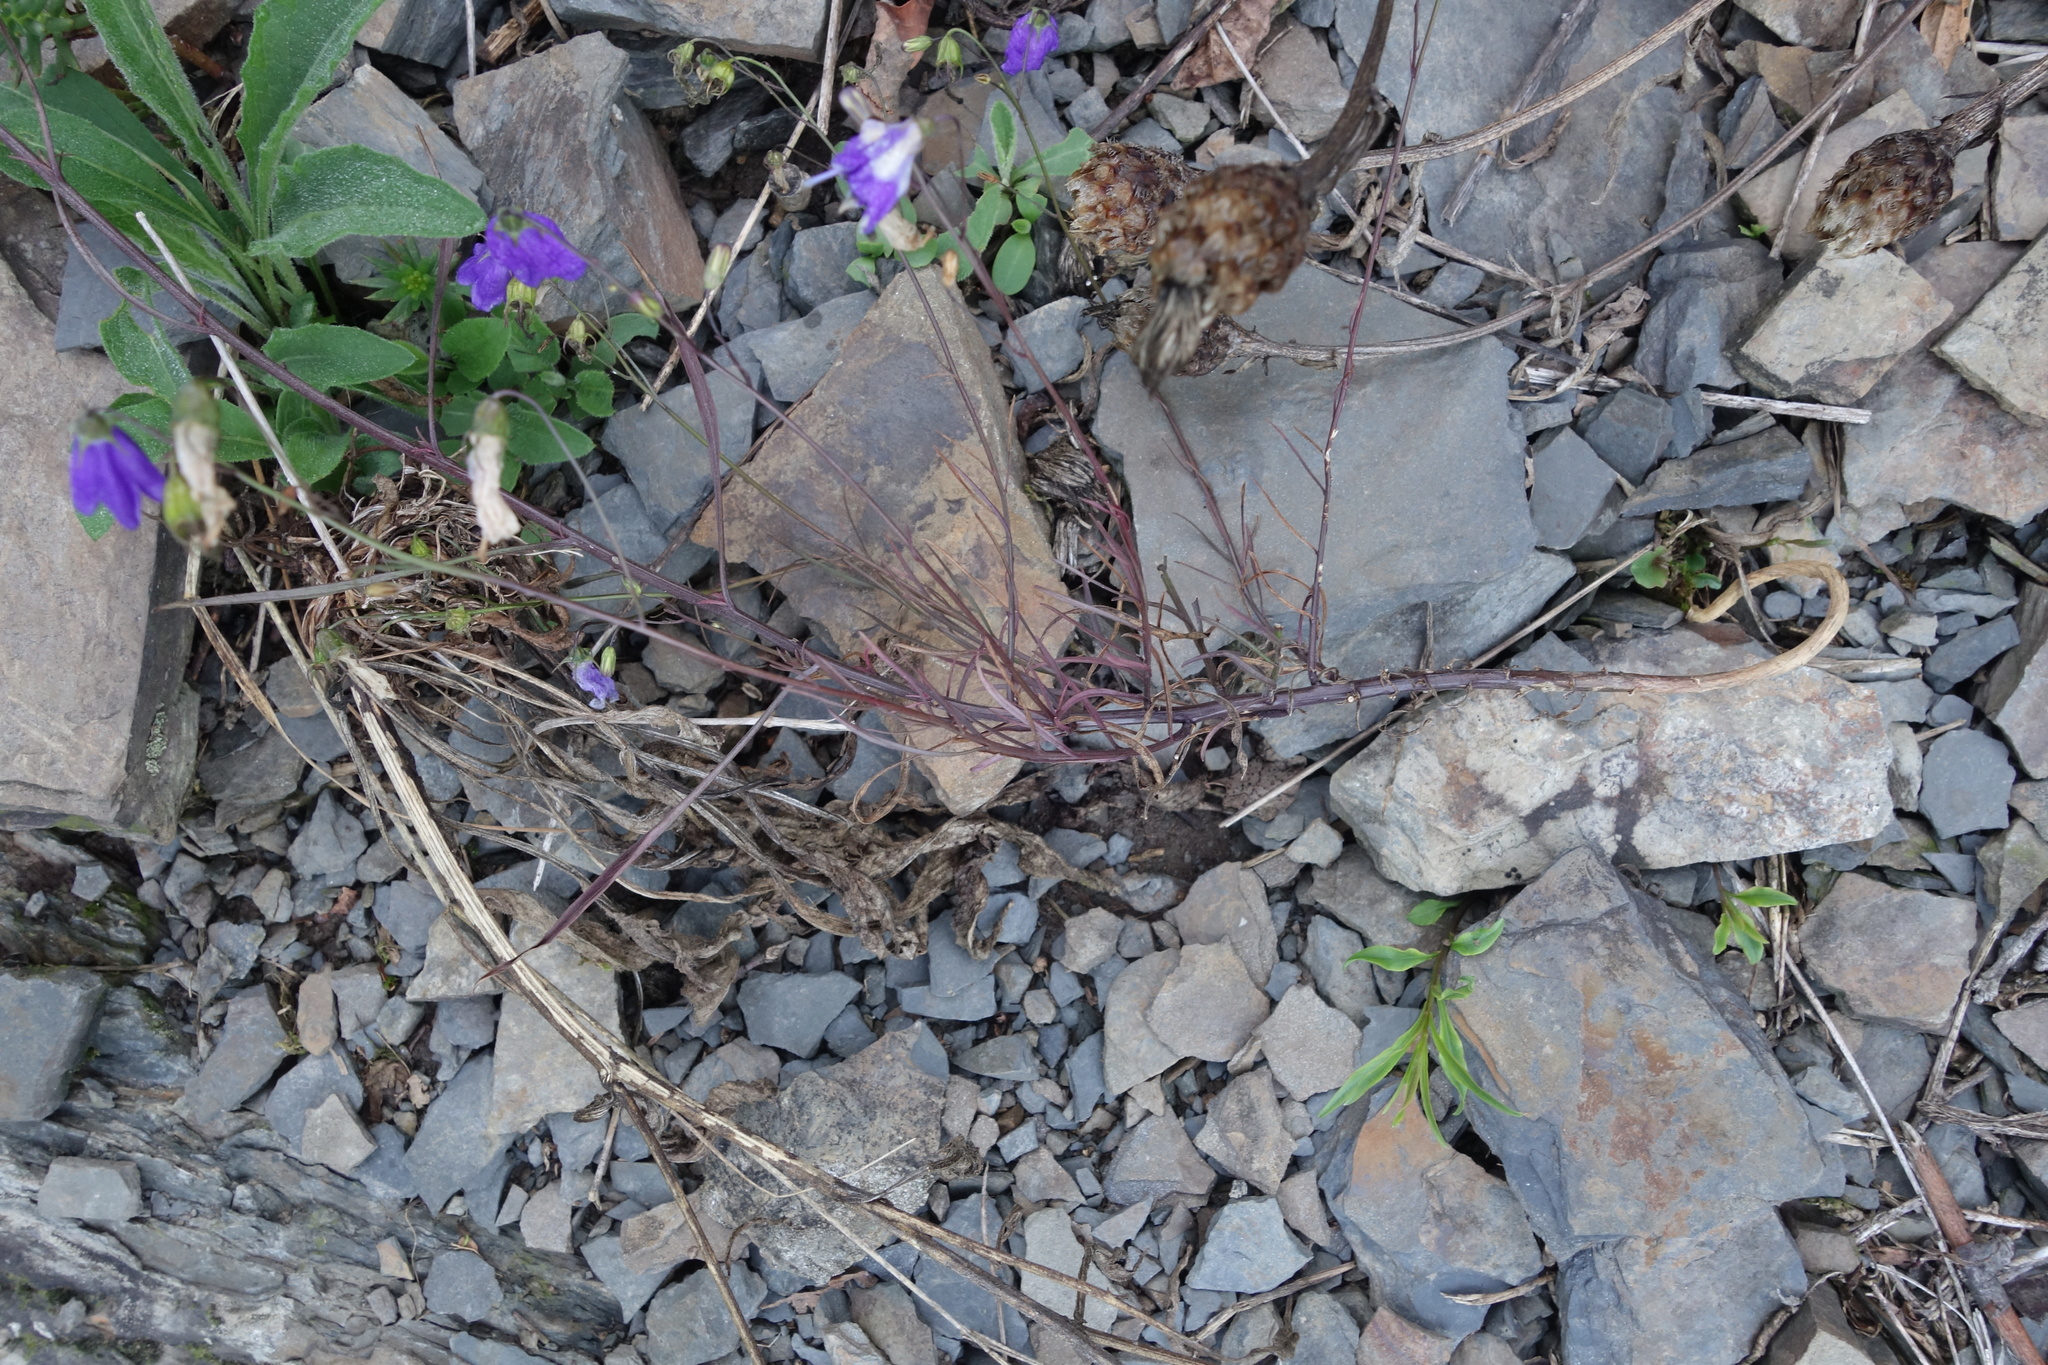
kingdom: Plantae
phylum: Tracheophyta
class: Magnoliopsida
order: Asterales
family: Campanulaceae
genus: Campanula
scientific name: Campanula rotundifolia
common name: Harebell
